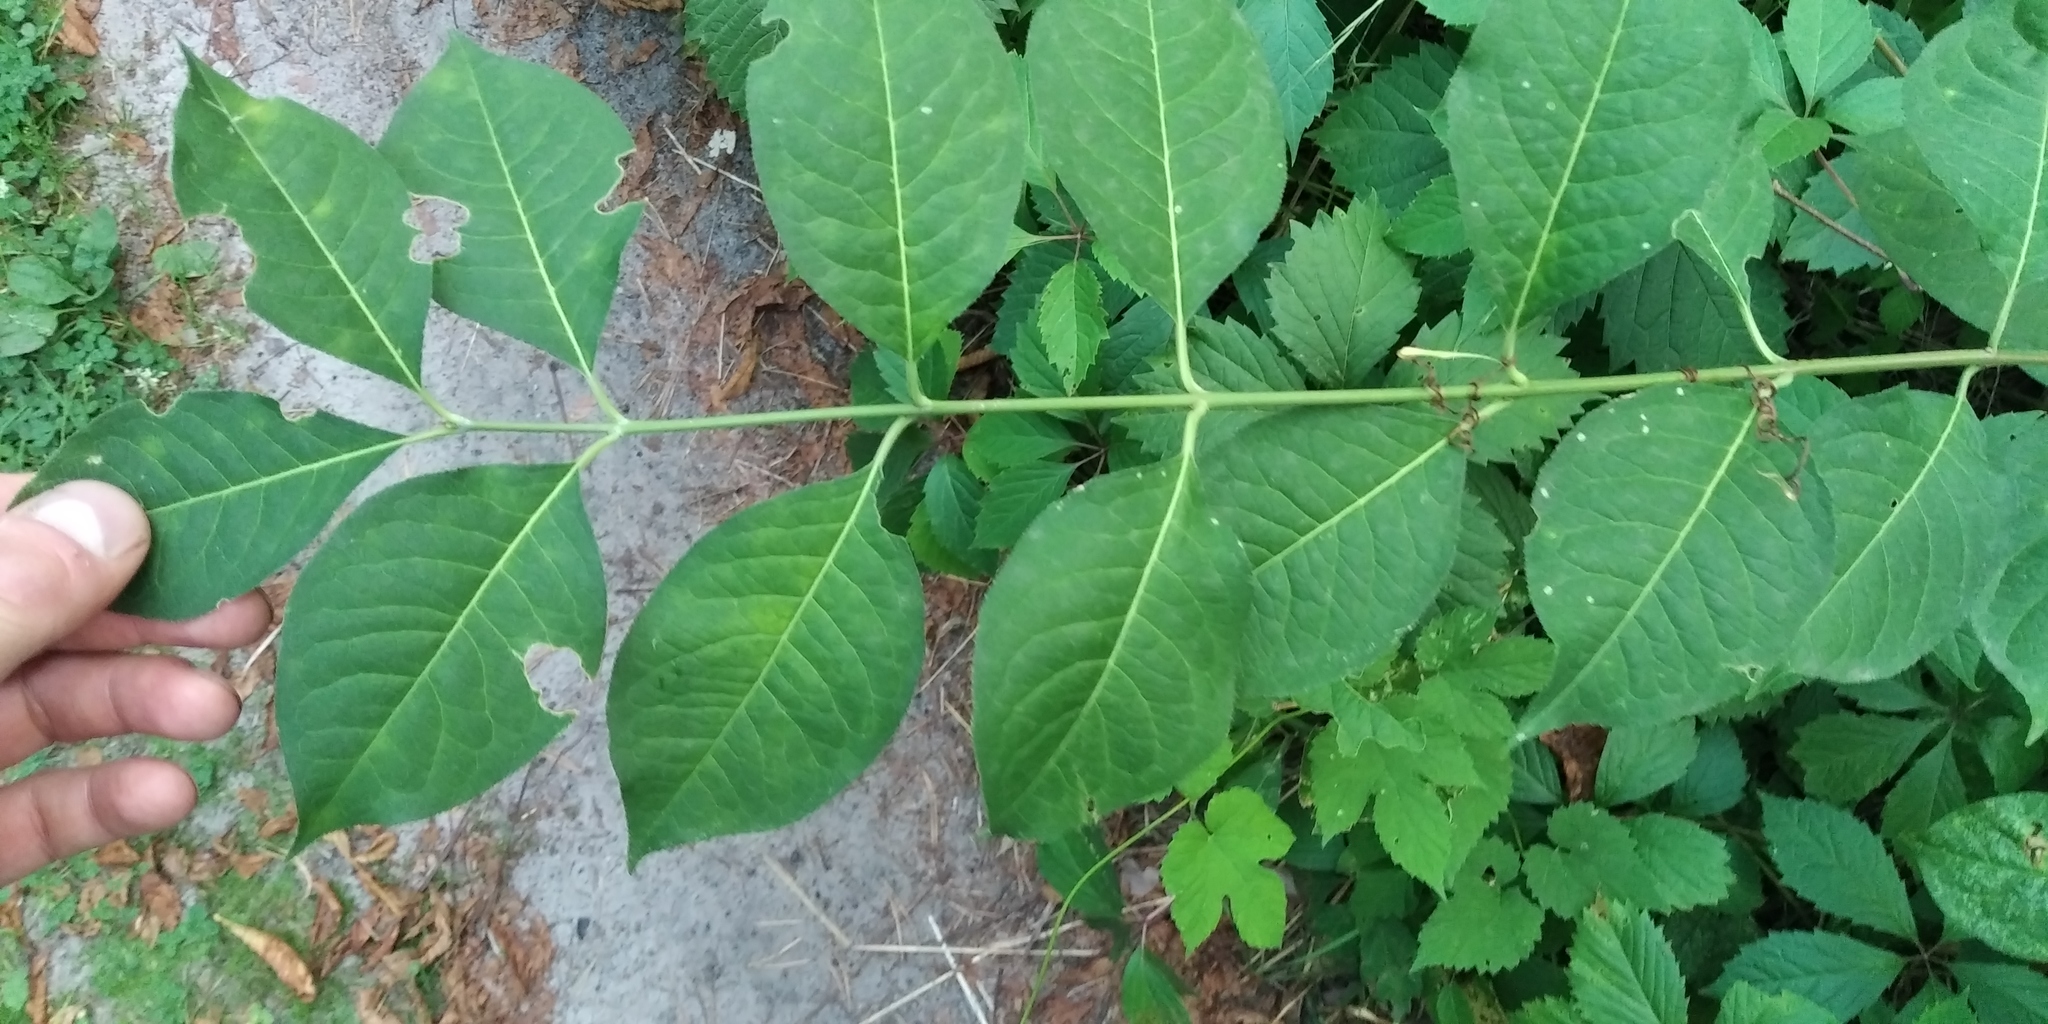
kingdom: Plantae
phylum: Tracheophyta
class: Magnoliopsida
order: Celastrales
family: Celastraceae
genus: Euonymus
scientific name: Euonymus europaeus
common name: Spindle
